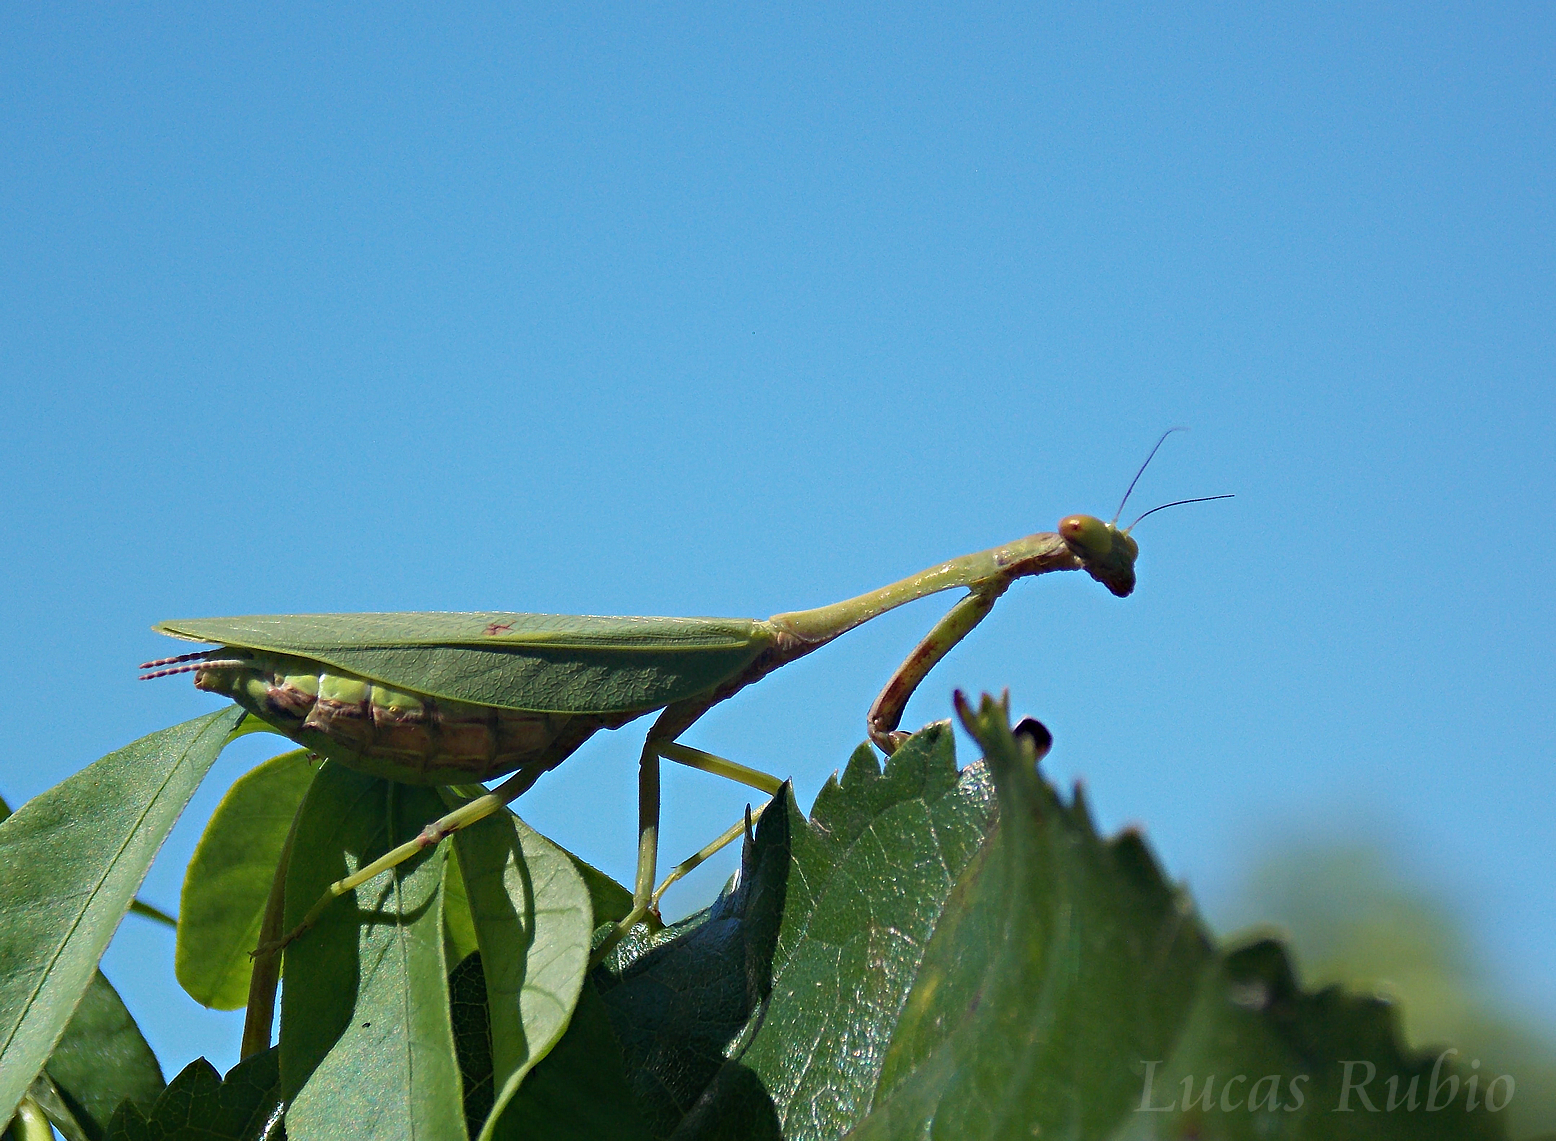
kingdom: Animalia
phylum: Arthropoda
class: Insecta
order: Mantodea
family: Mantidae
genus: Parastagmatoptera
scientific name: Parastagmatoptera unipunctata
